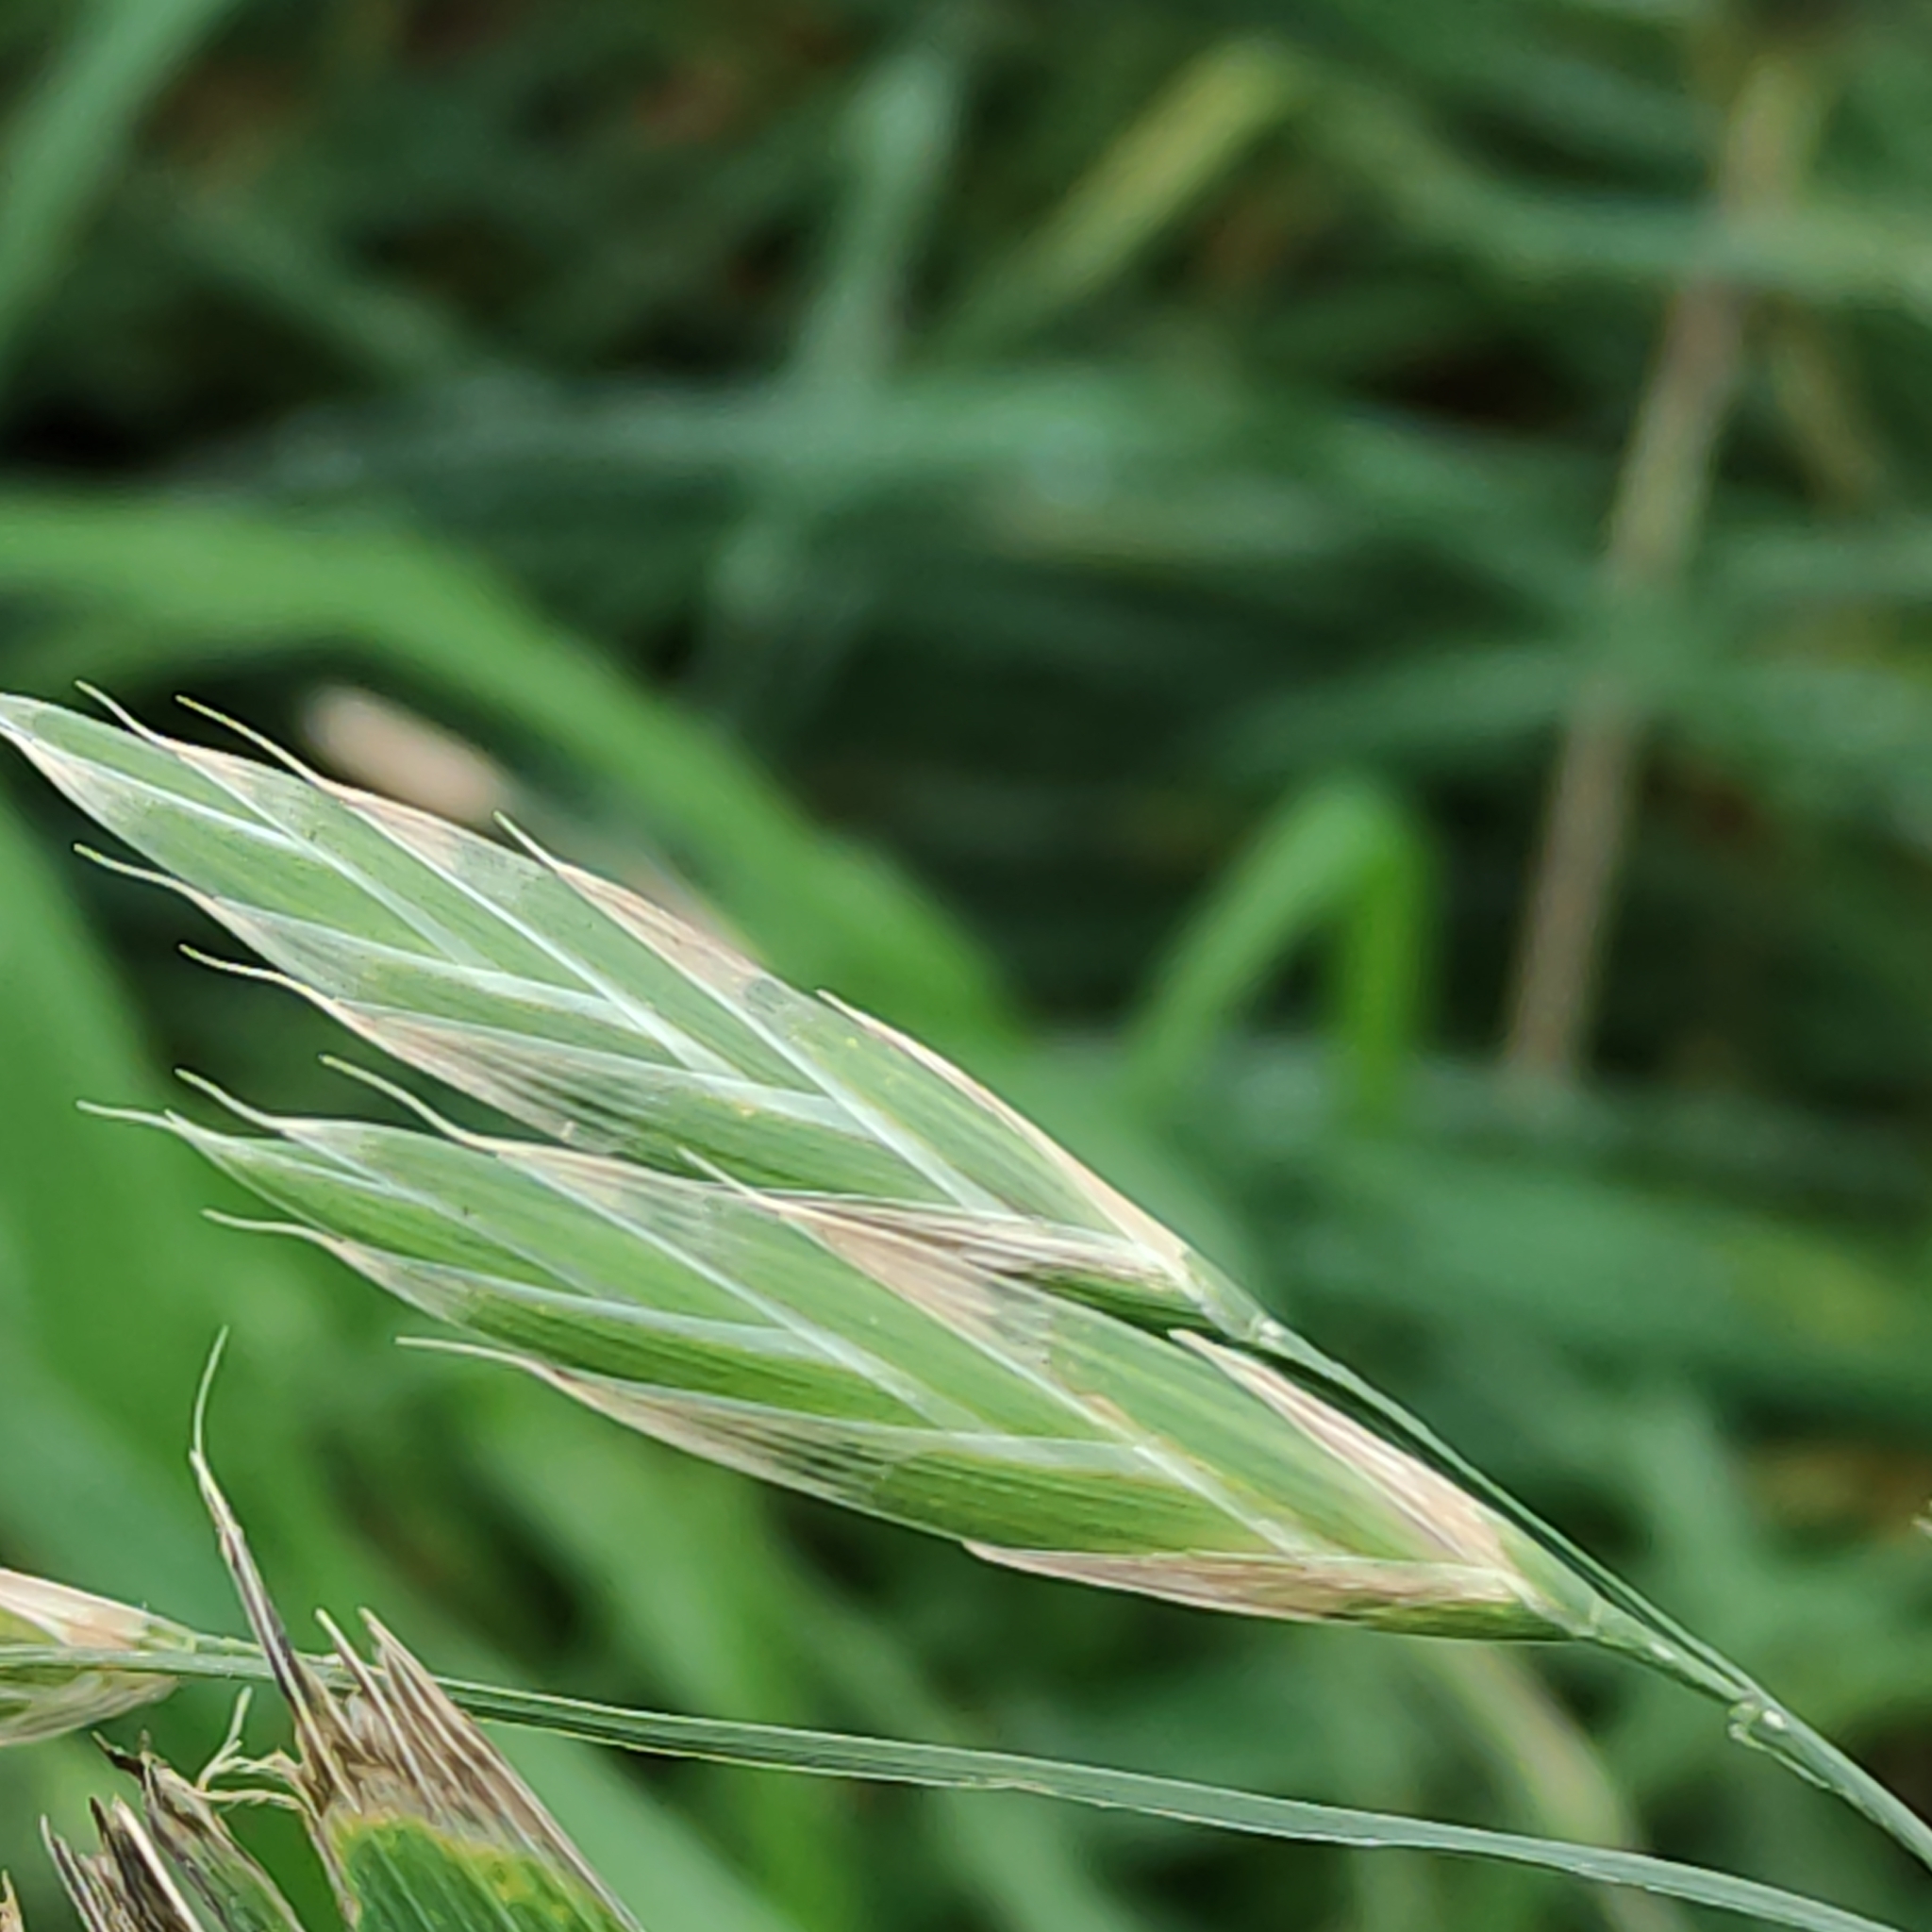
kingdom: Plantae
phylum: Tracheophyta
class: Liliopsida
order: Poales
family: Poaceae
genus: Bromus
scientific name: Bromus catharticus
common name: Rescuegrass
